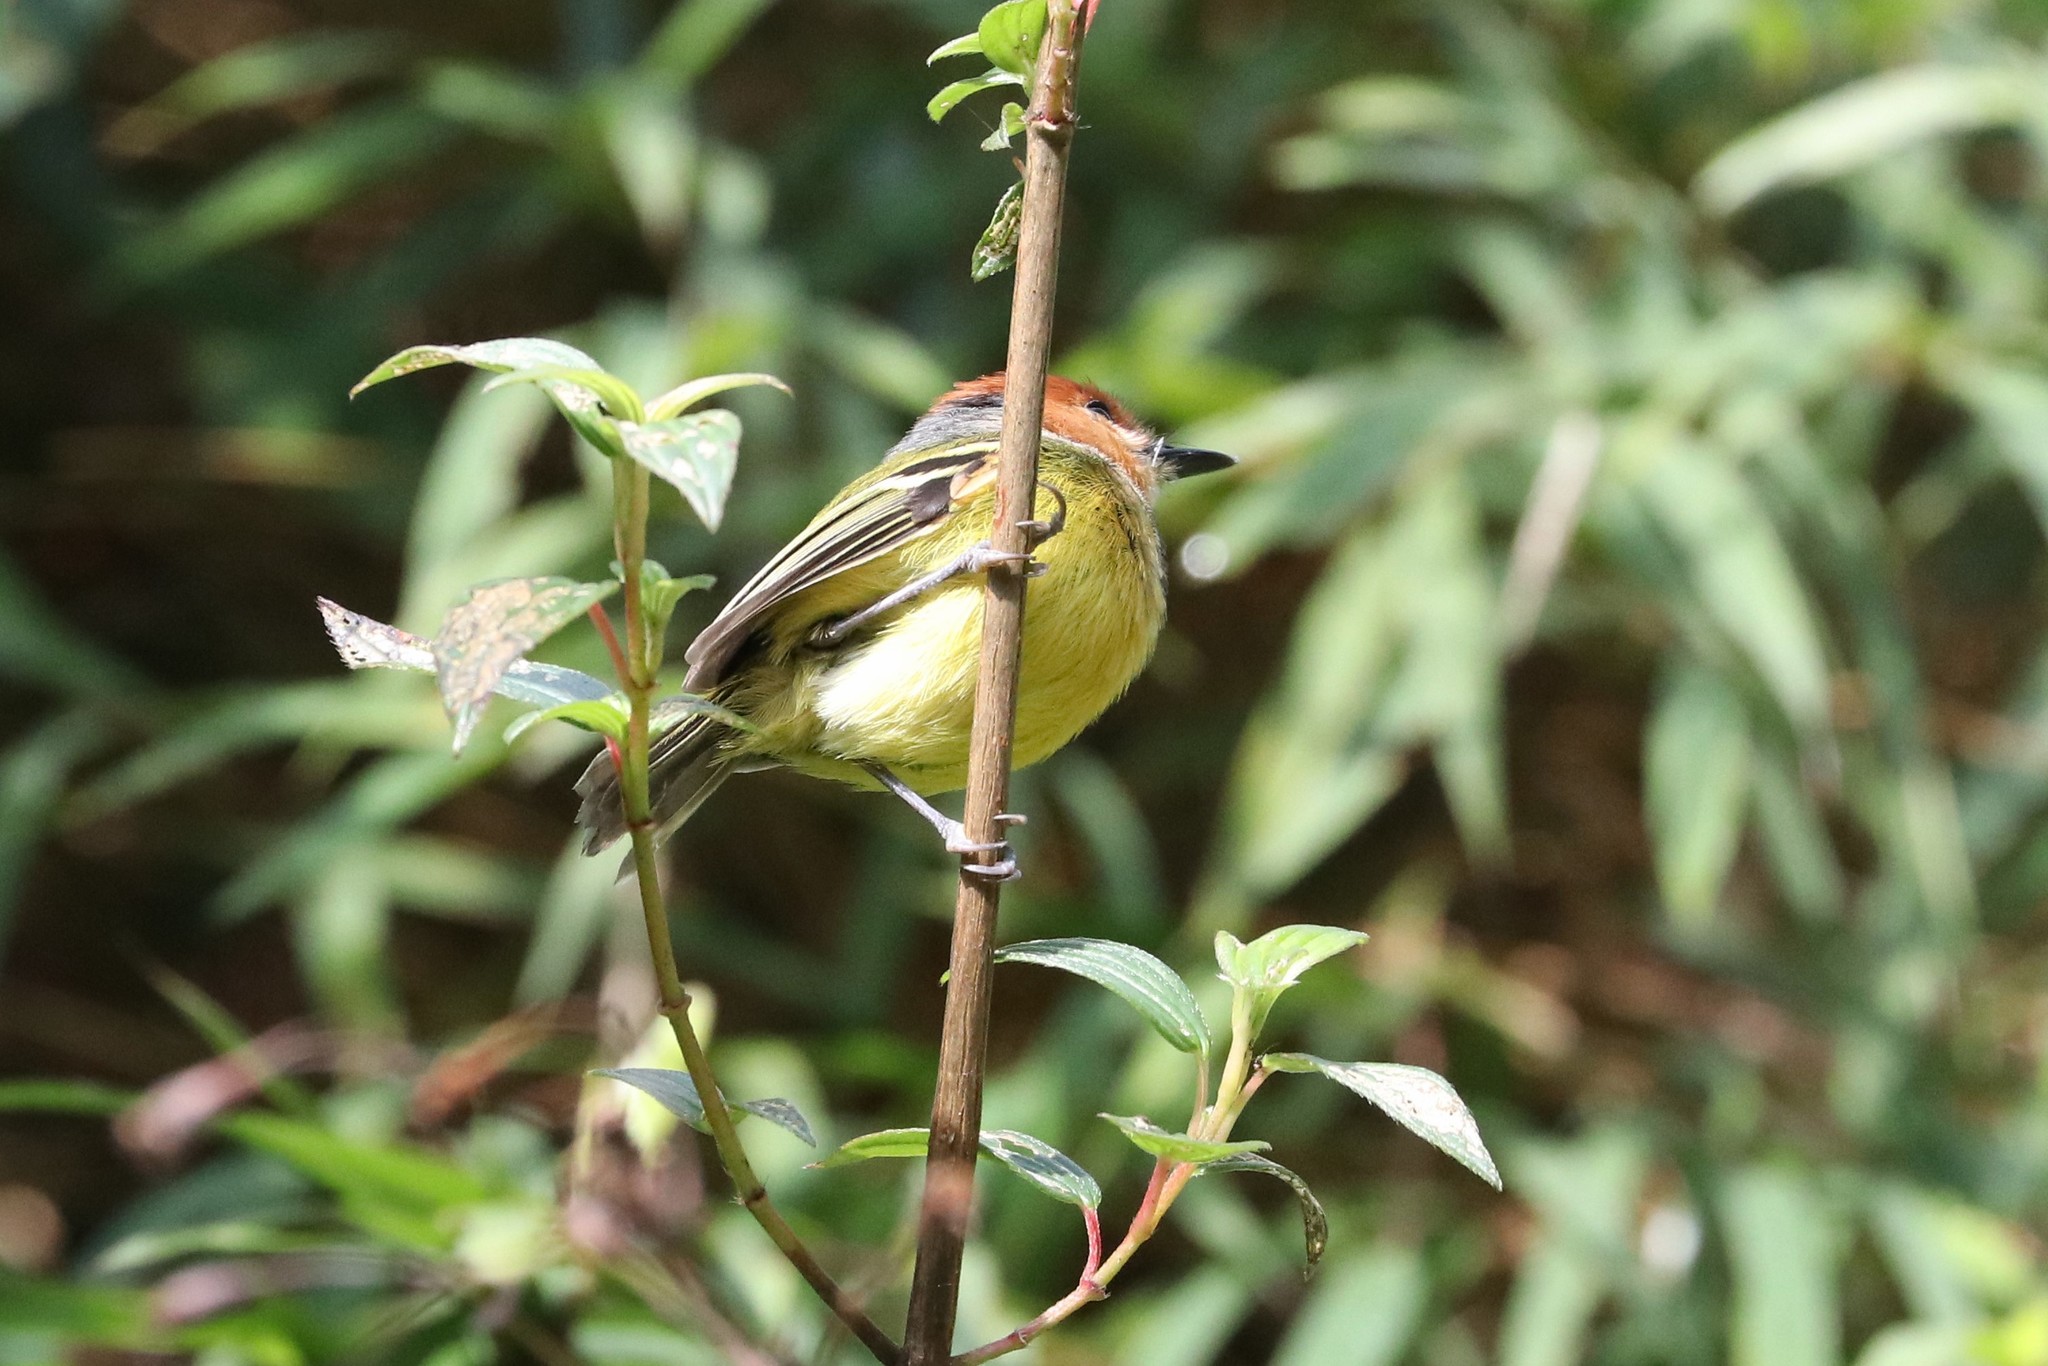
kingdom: Animalia
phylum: Chordata
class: Aves
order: Passeriformes
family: Tyrannidae
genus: Poecilotriccus
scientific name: Poecilotriccus ruficeps
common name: Rufous-crowned tody-flycatcher
